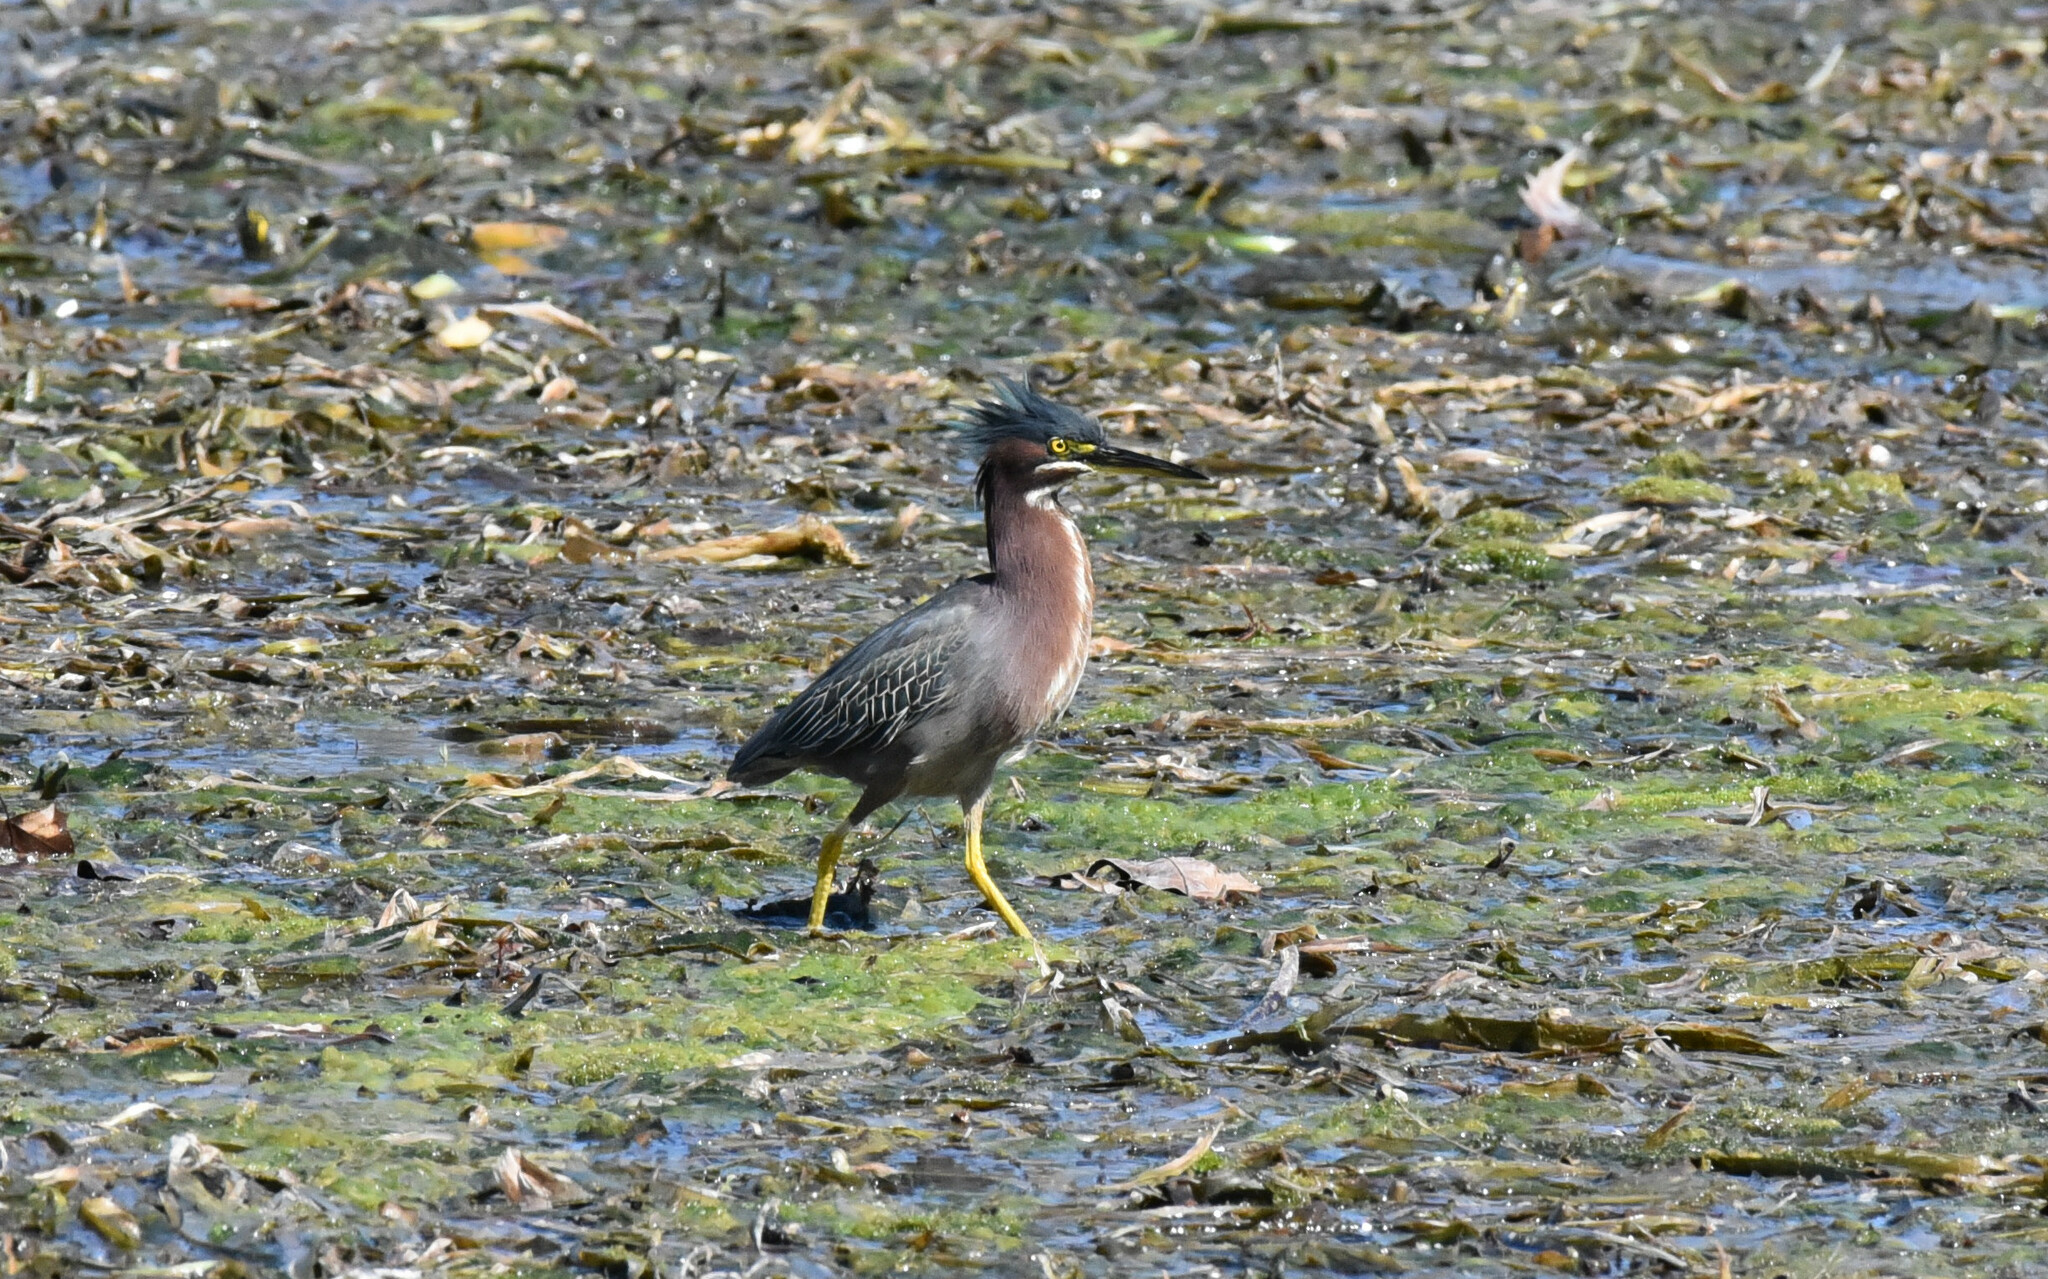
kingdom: Animalia
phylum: Chordata
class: Aves
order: Pelecaniformes
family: Ardeidae
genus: Butorides
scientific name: Butorides virescens
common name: Green heron
